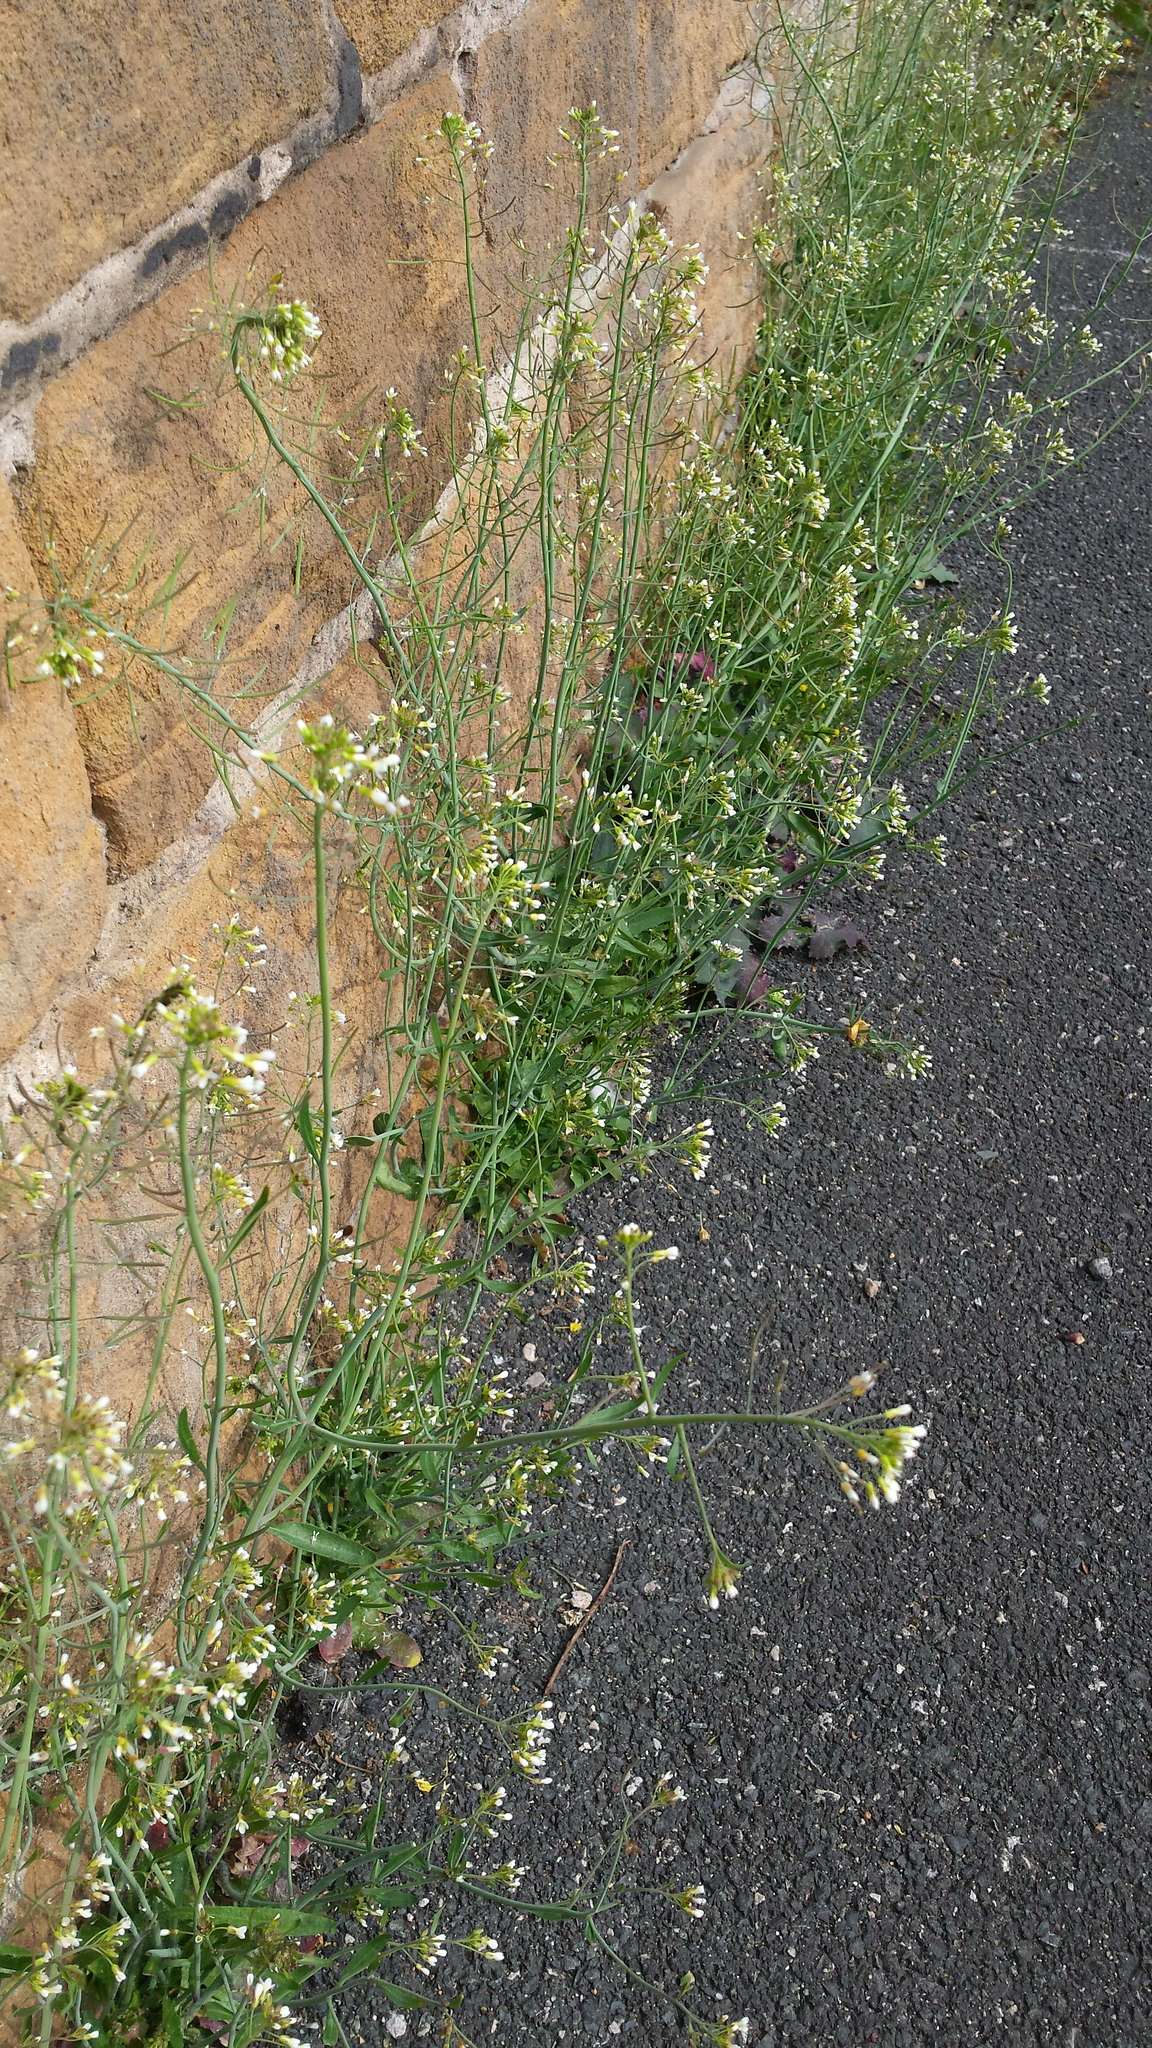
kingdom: Plantae
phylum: Tracheophyta
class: Magnoliopsida
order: Brassicales
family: Brassicaceae
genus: Arabidopsis
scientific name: Arabidopsis thaliana
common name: Thale cress
